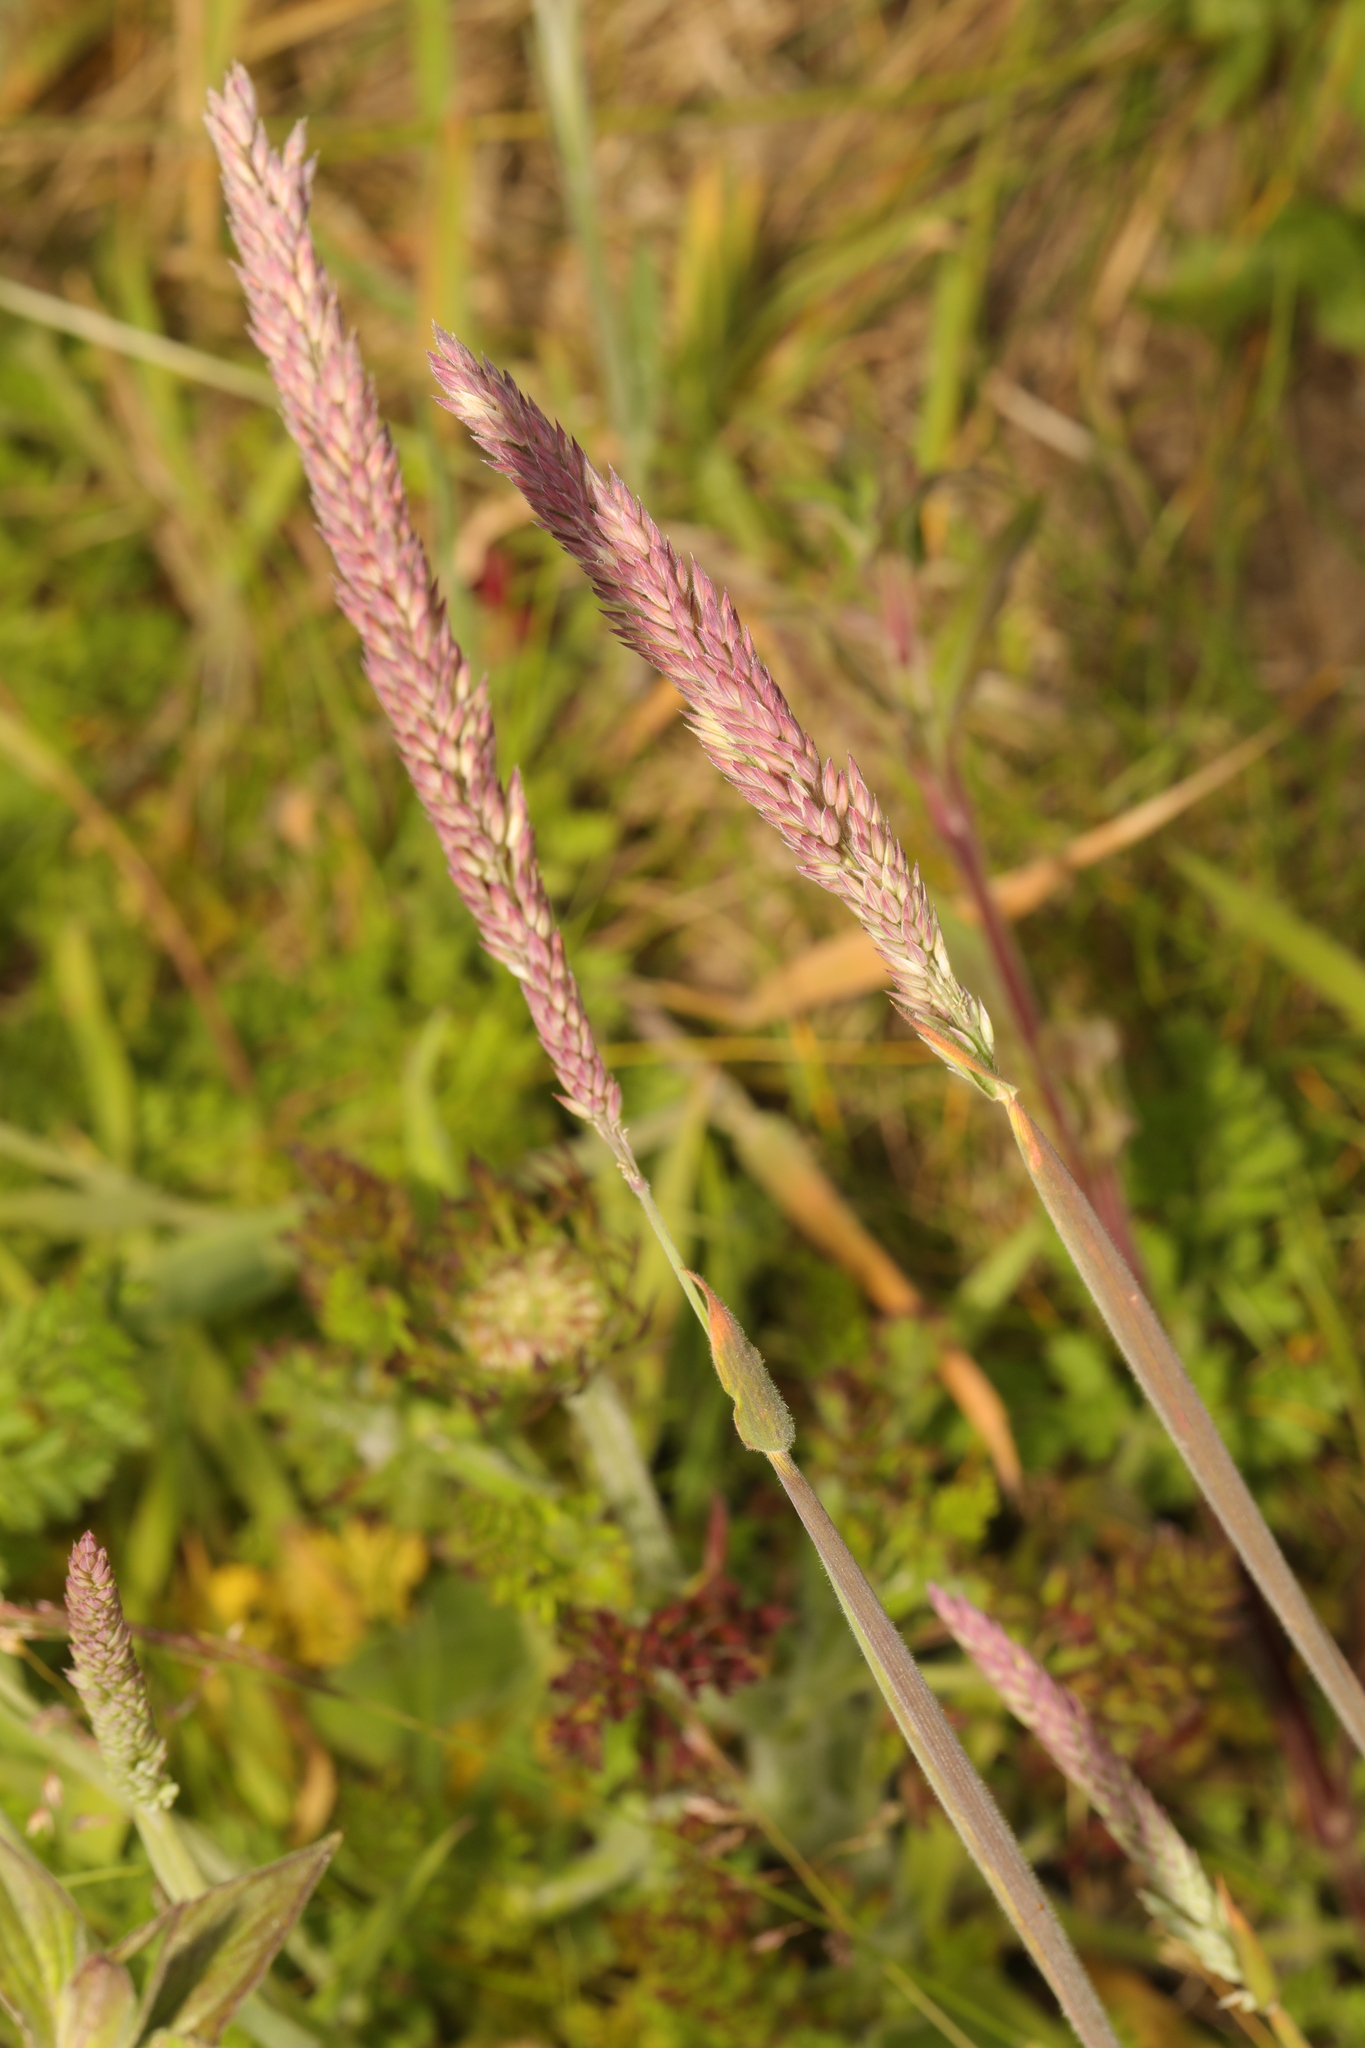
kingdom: Plantae
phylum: Tracheophyta
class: Liliopsida
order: Poales
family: Poaceae
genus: Holcus
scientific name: Holcus lanatus
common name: Yorkshire-fog
